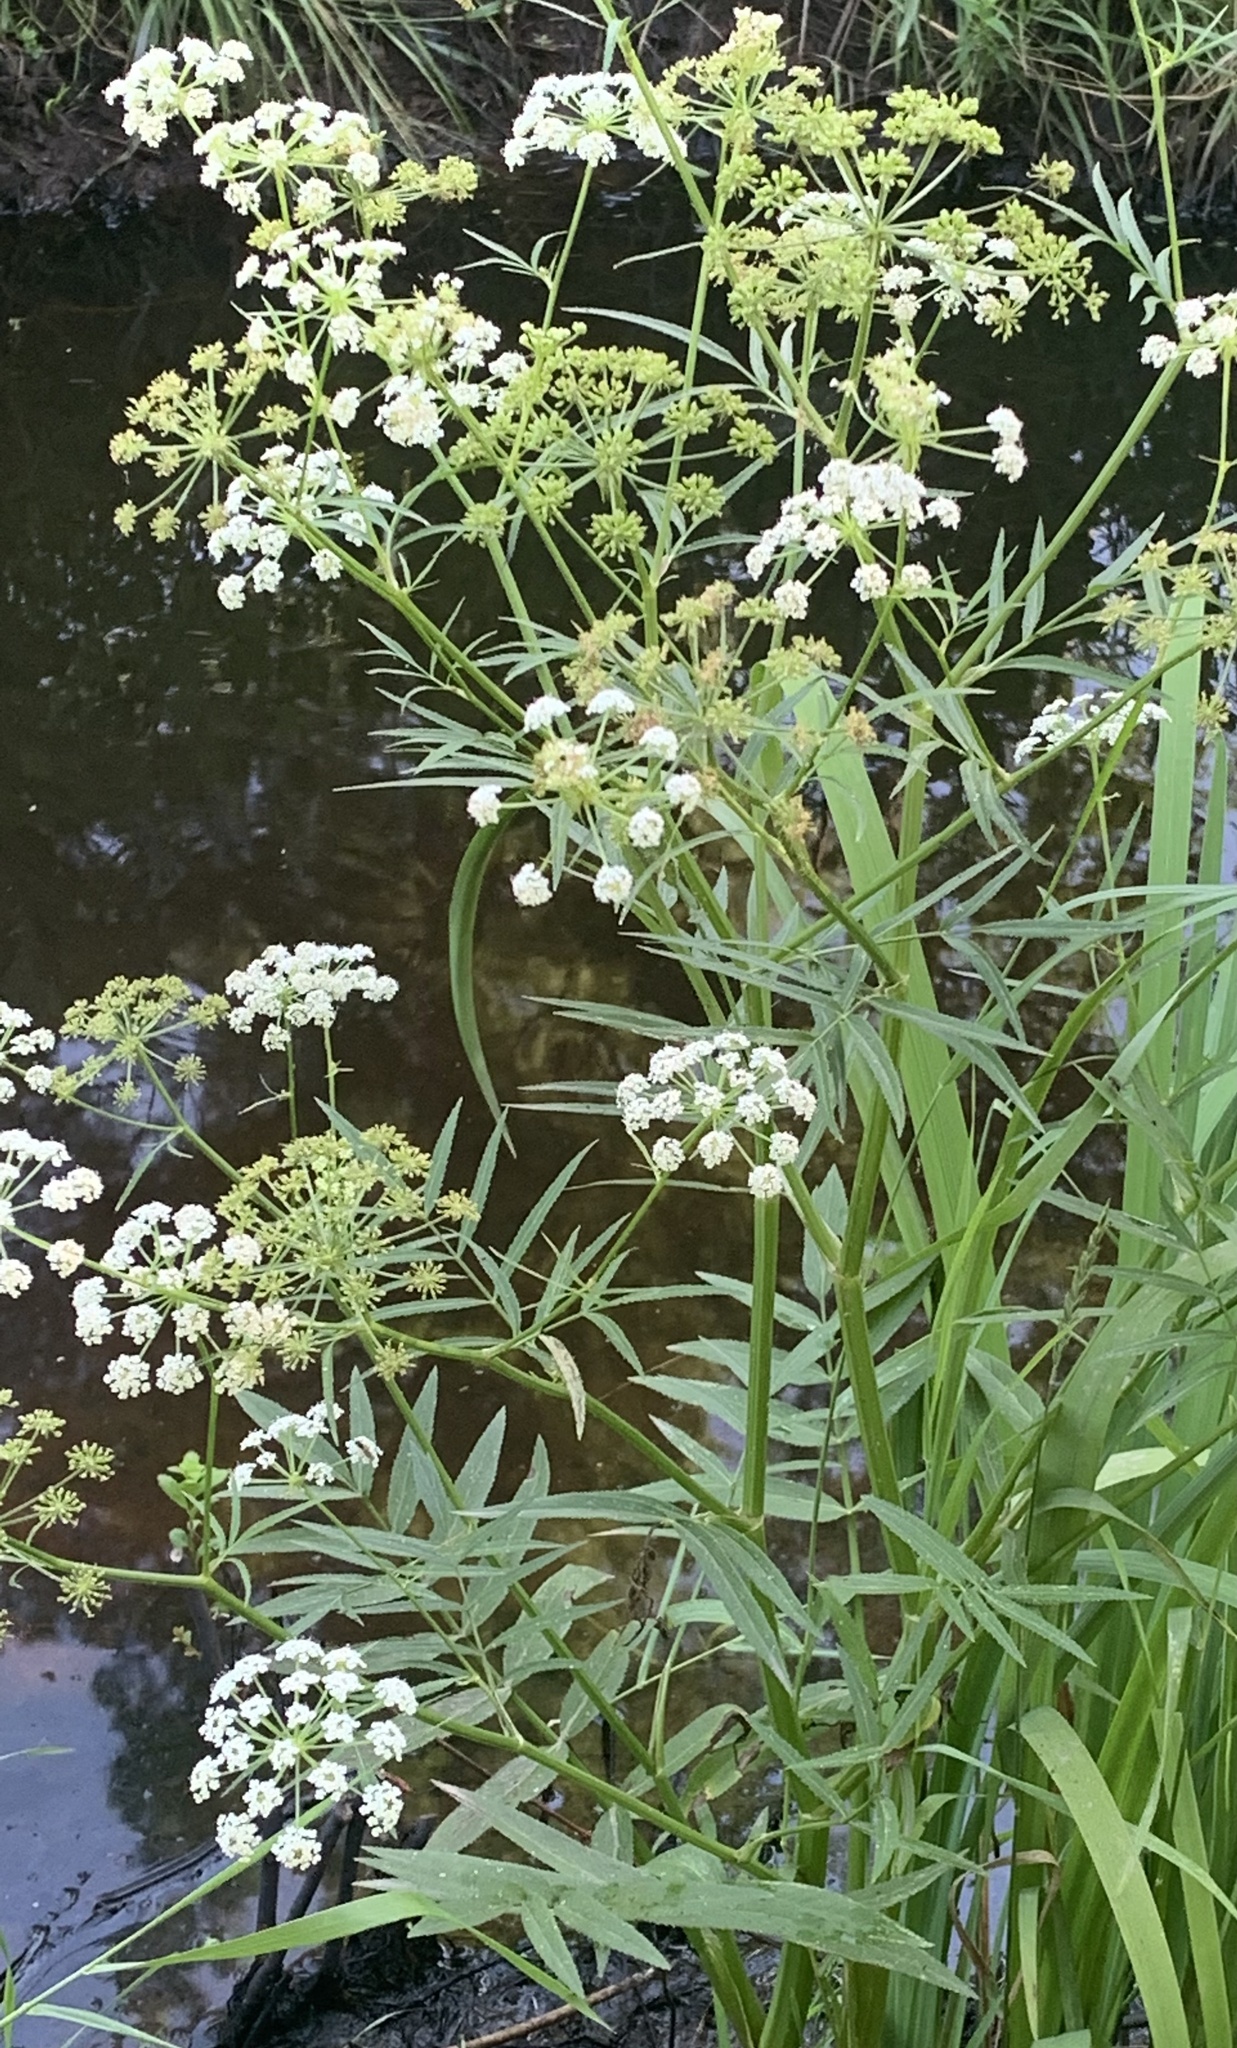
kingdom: Plantae
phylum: Tracheophyta
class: Magnoliopsida
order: Apiales
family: Apiaceae
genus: Sium
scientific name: Sium suave
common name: Hemlock water-parsnip
